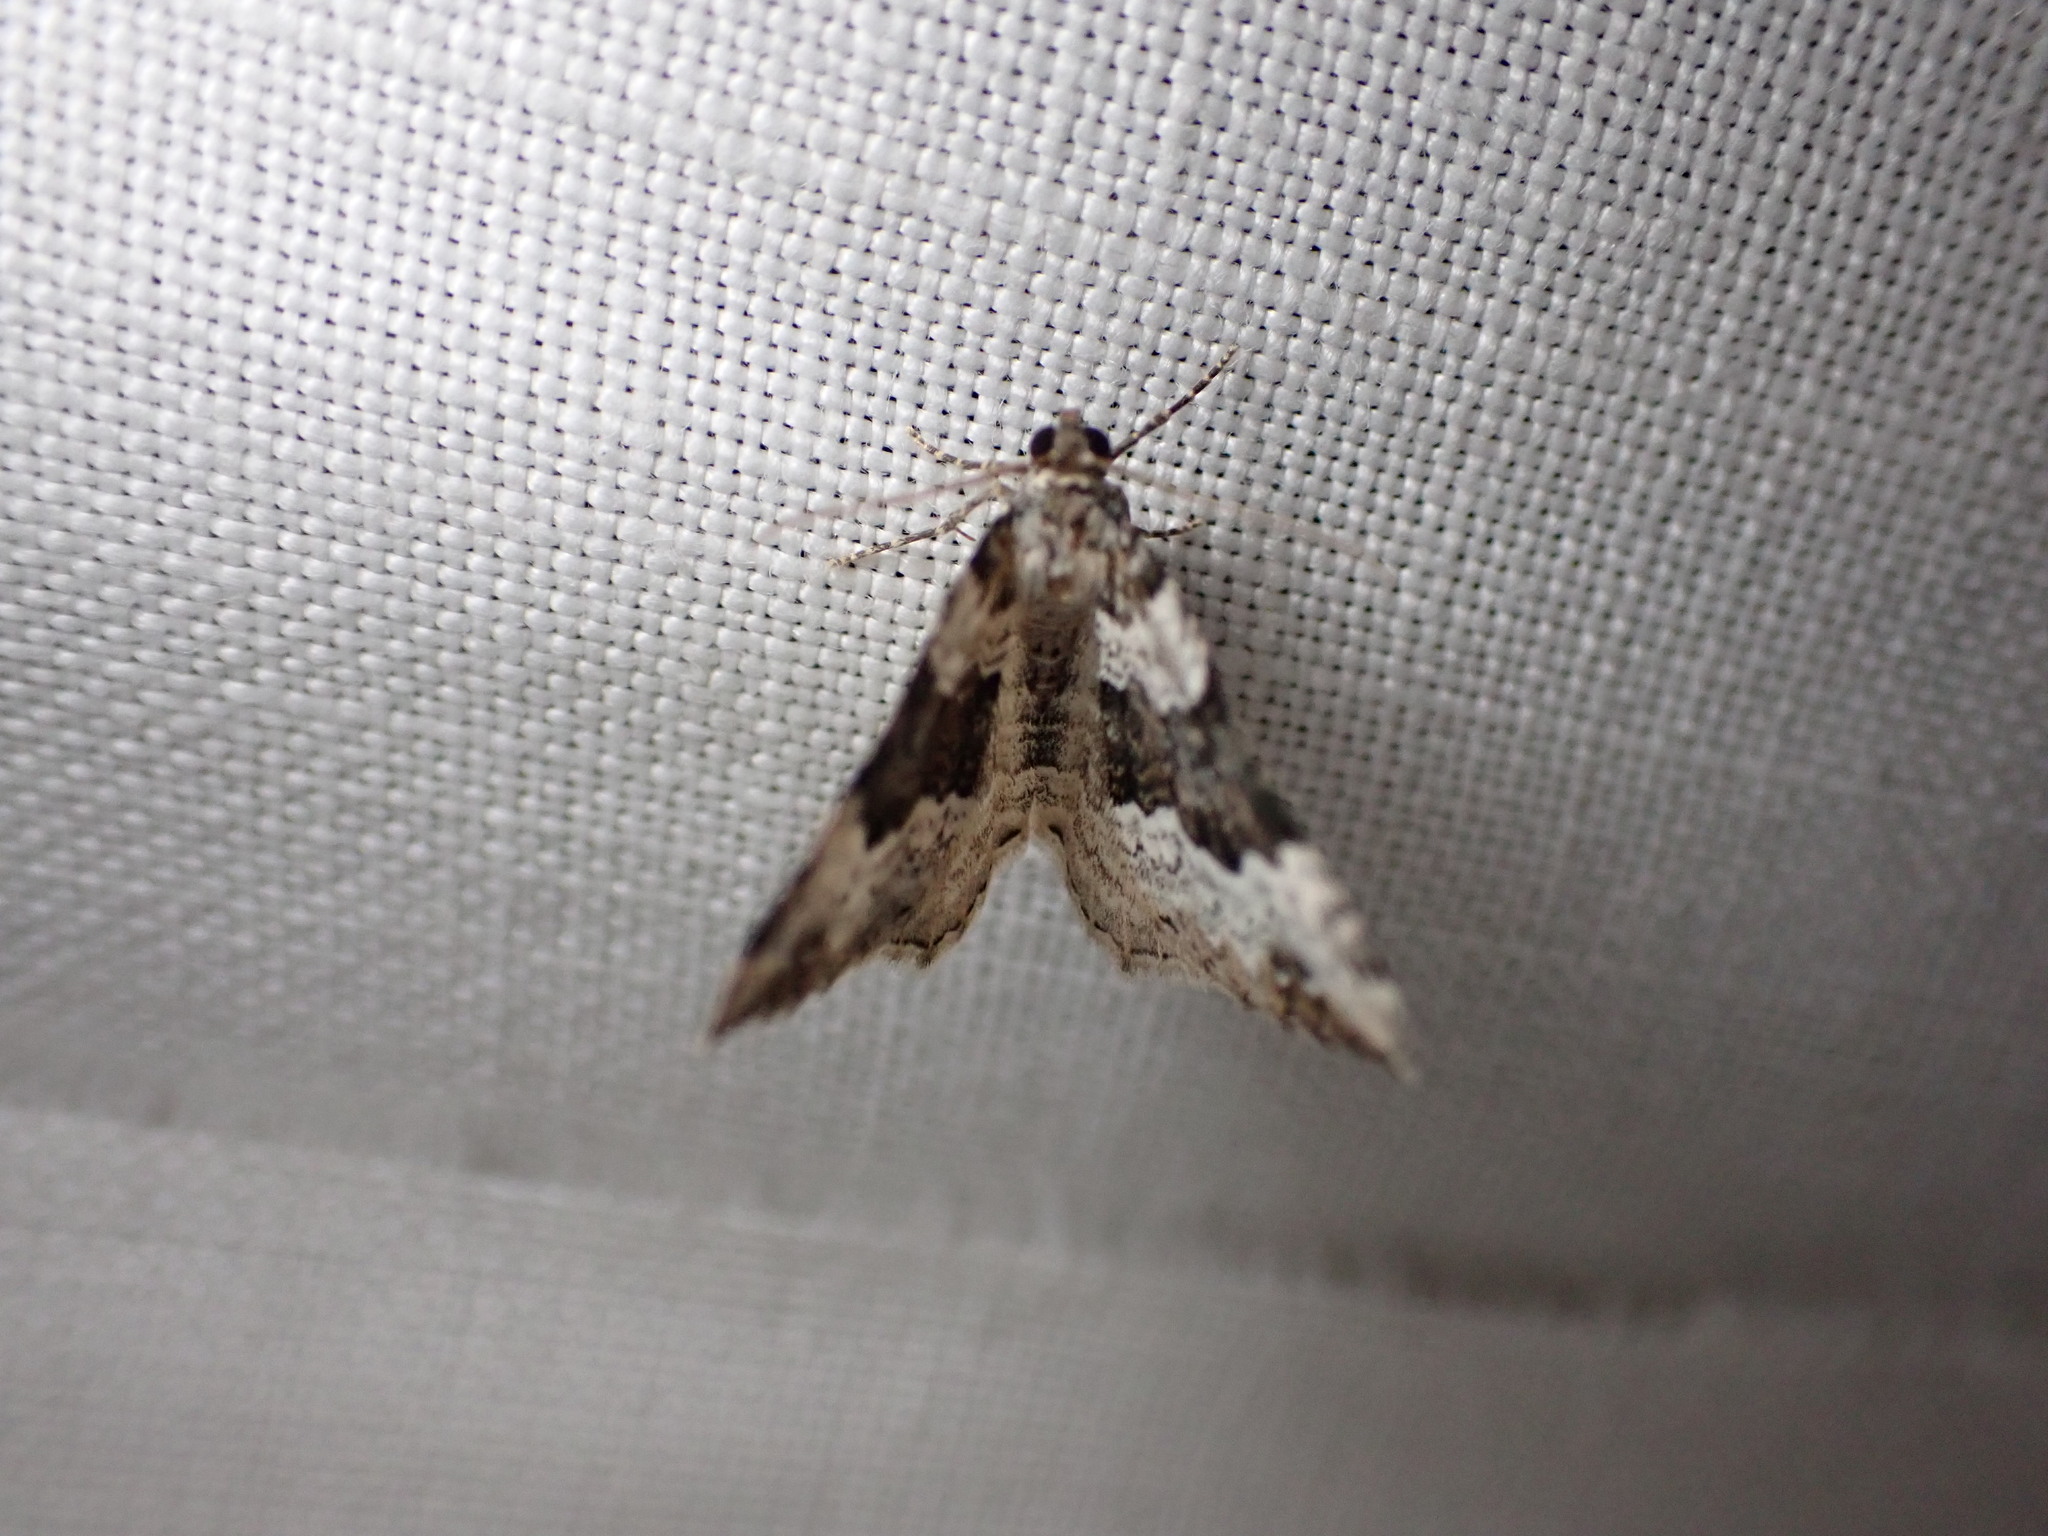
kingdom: Animalia
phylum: Arthropoda
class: Insecta
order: Lepidoptera
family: Geometridae
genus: Epirrhoe
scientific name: Epirrhoe galiata
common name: Galium carpet
